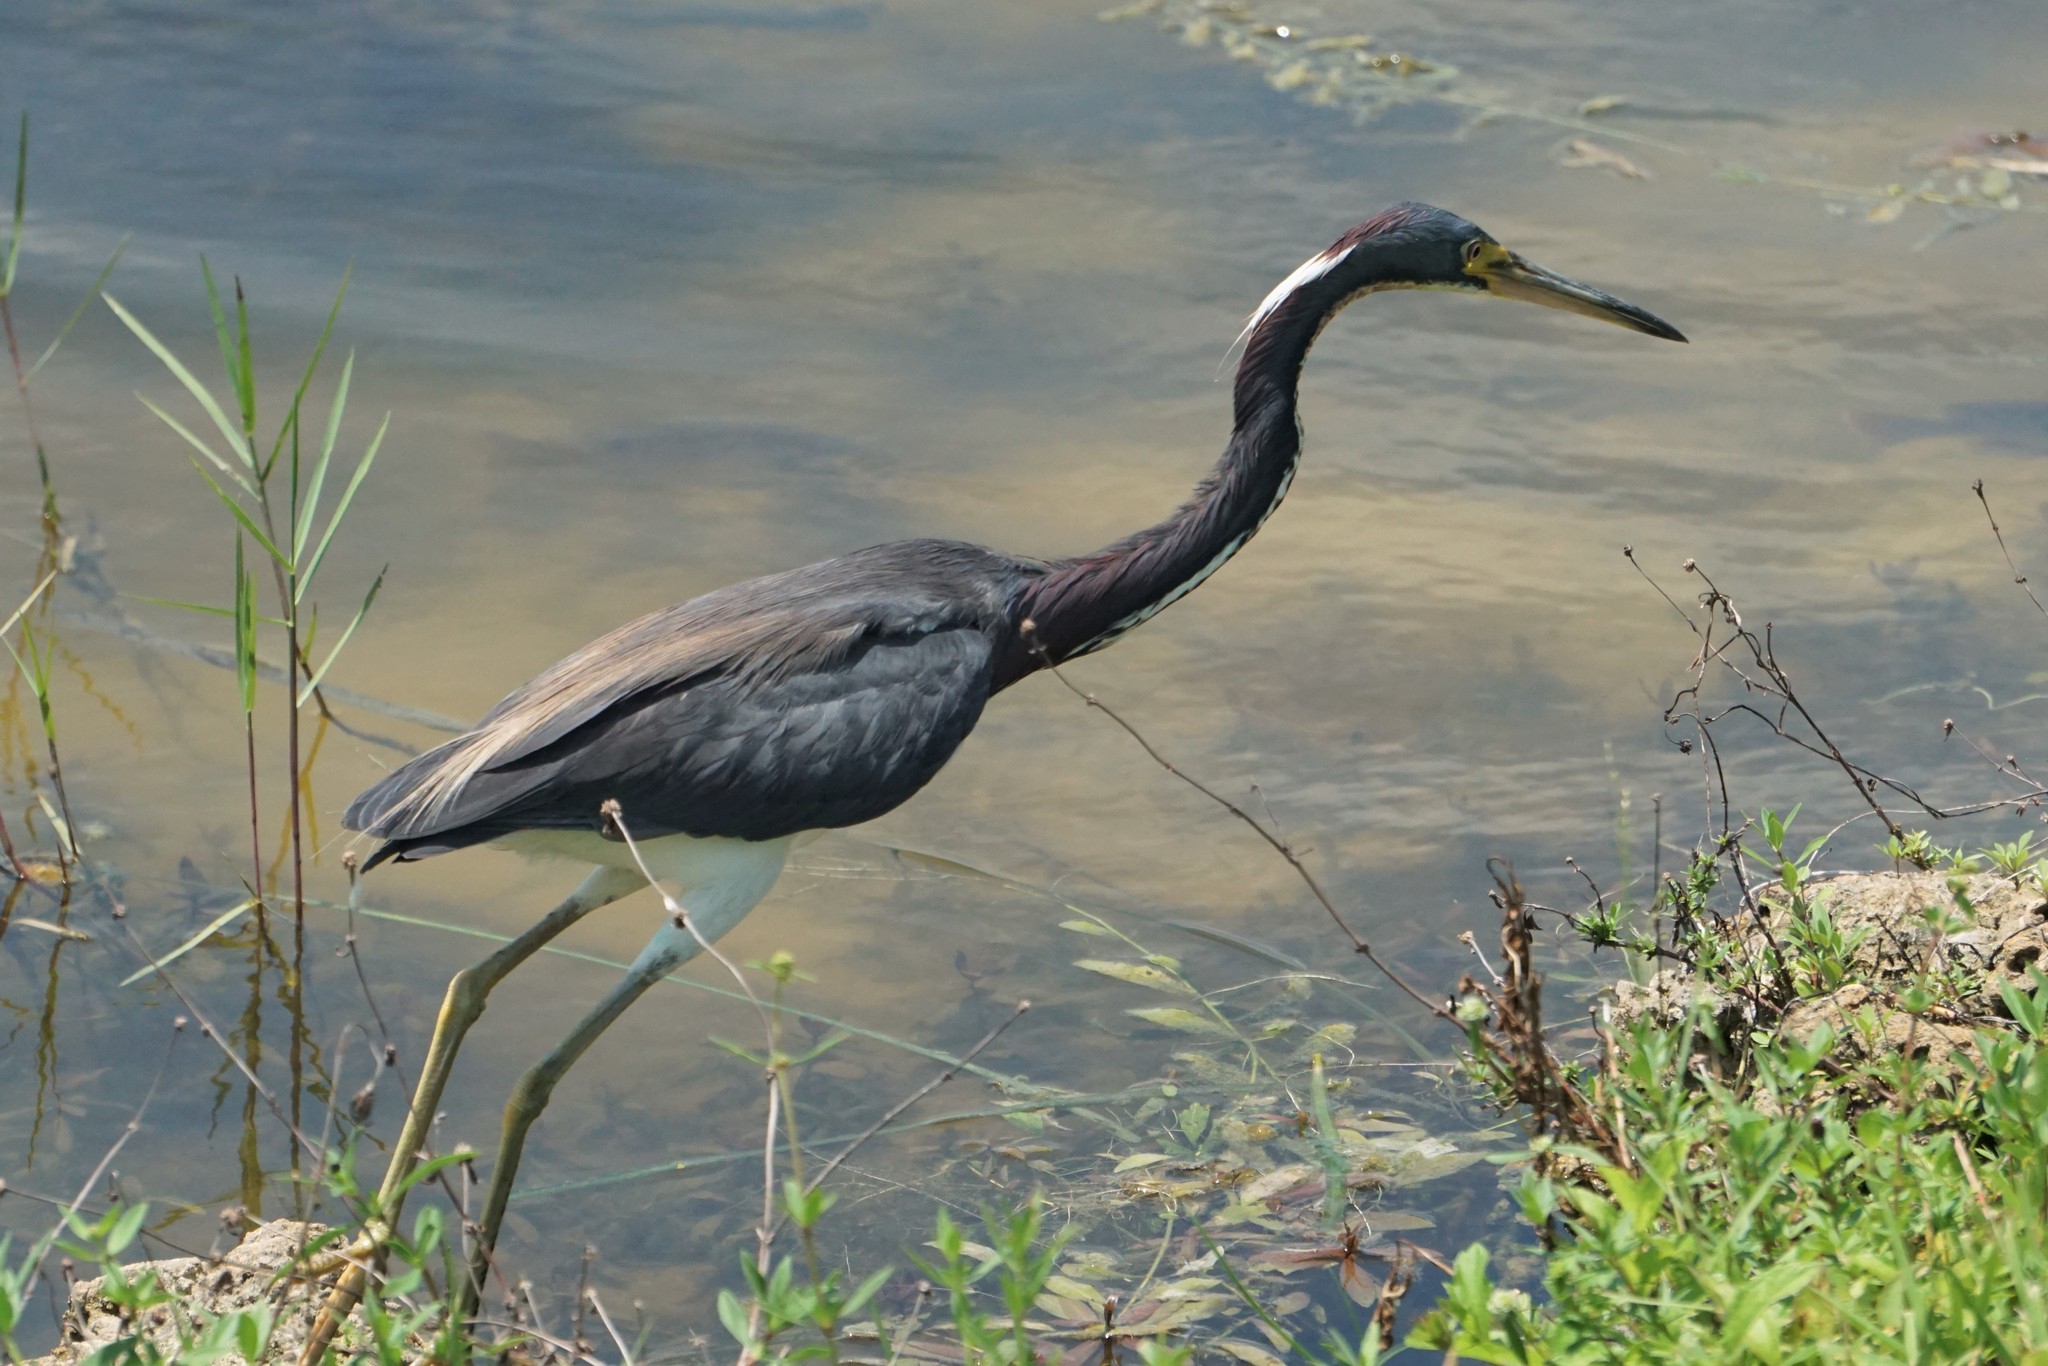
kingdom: Animalia
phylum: Chordata
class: Aves
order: Pelecaniformes
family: Ardeidae
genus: Egretta
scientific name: Egretta tricolor
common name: Tricolored heron
